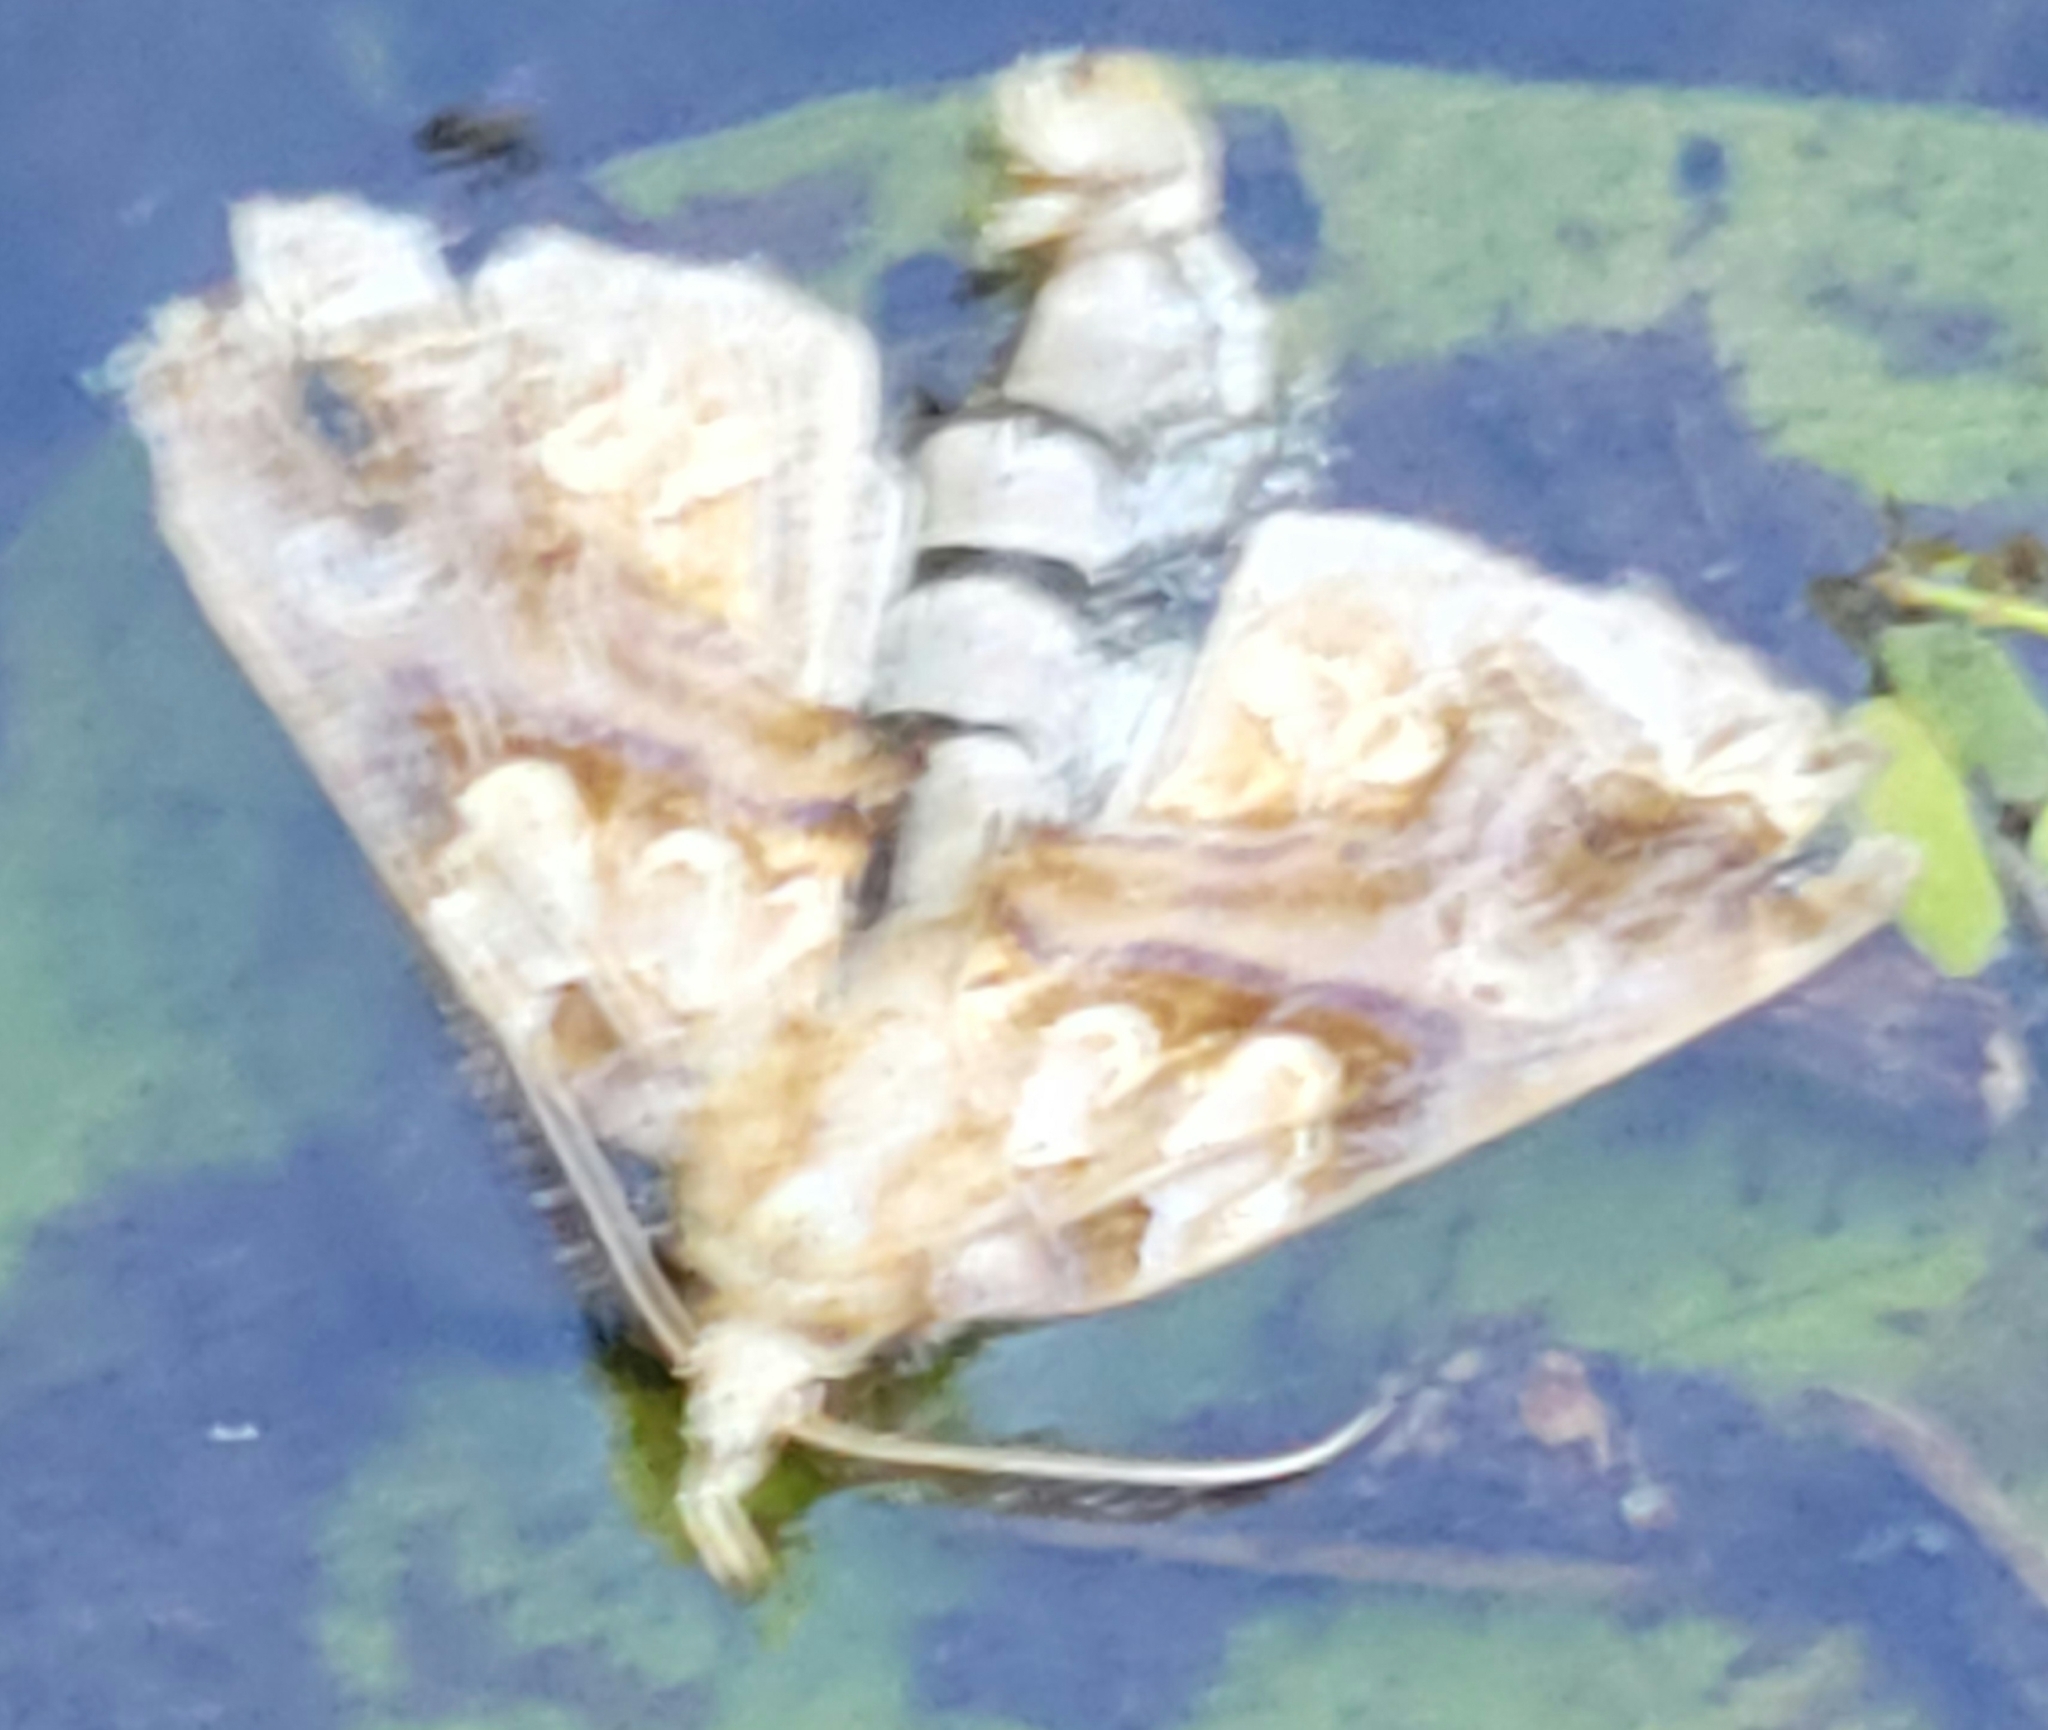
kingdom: Animalia
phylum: Arthropoda
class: Insecta
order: Lepidoptera
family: Erebidae
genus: Plusiodonta
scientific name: Plusiodonta compressipalpis
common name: Moonseed moth
